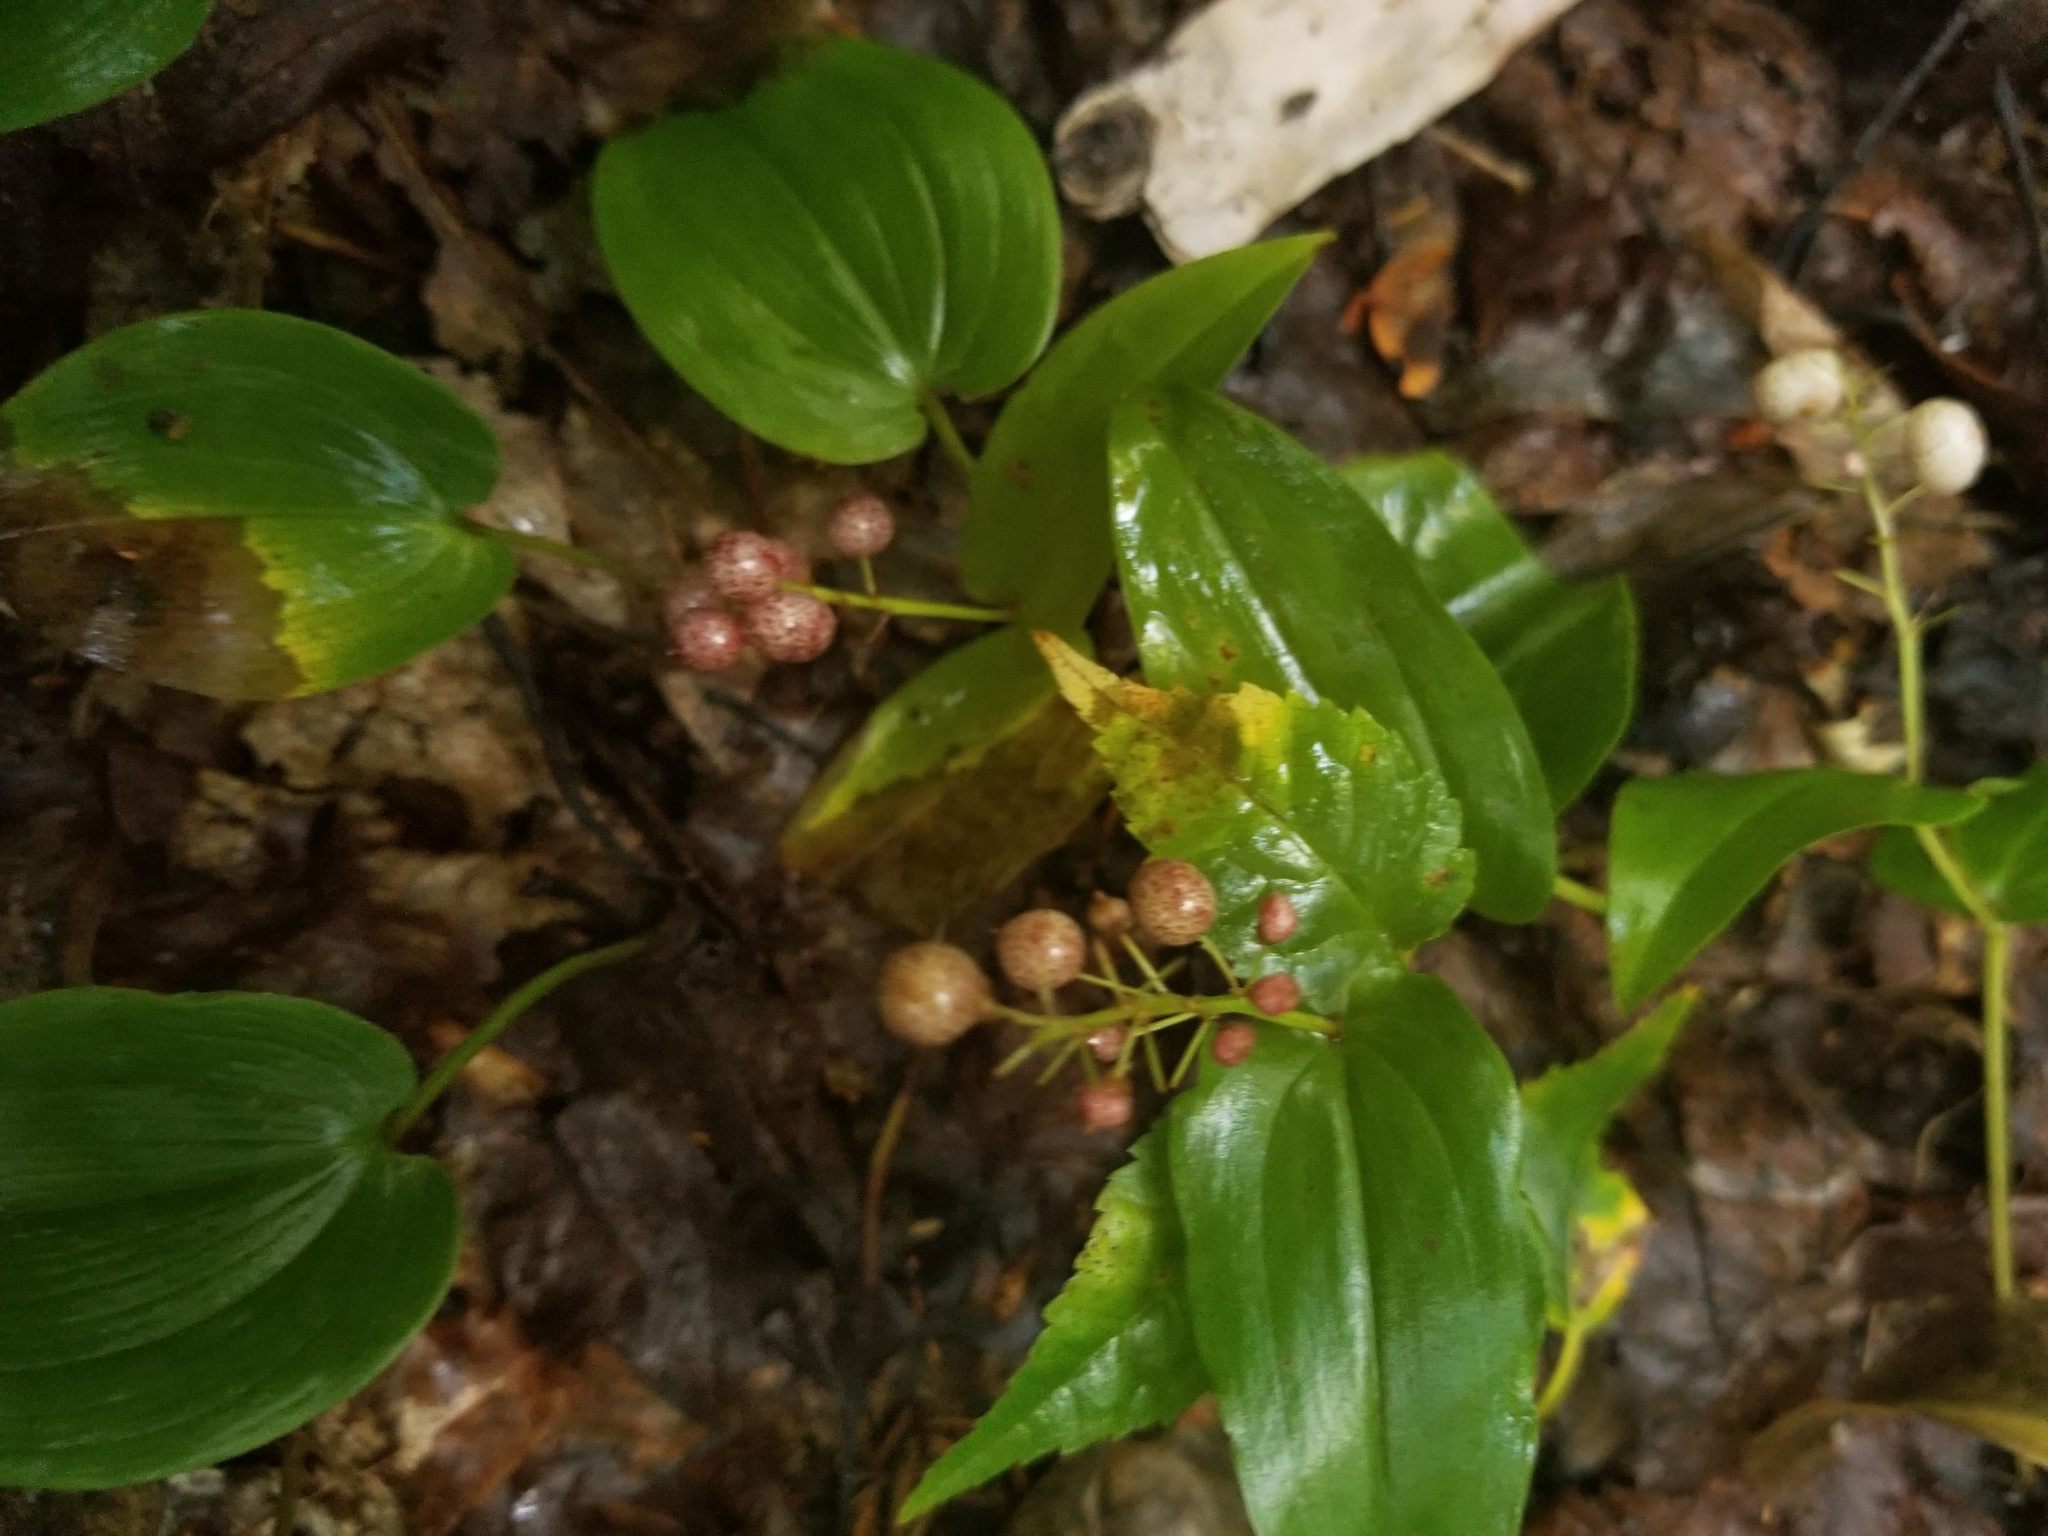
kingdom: Plantae
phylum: Tracheophyta
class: Liliopsida
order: Asparagales
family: Asparagaceae
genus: Maianthemum
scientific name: Maianthemum canadense
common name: False lily-of-the-valley
